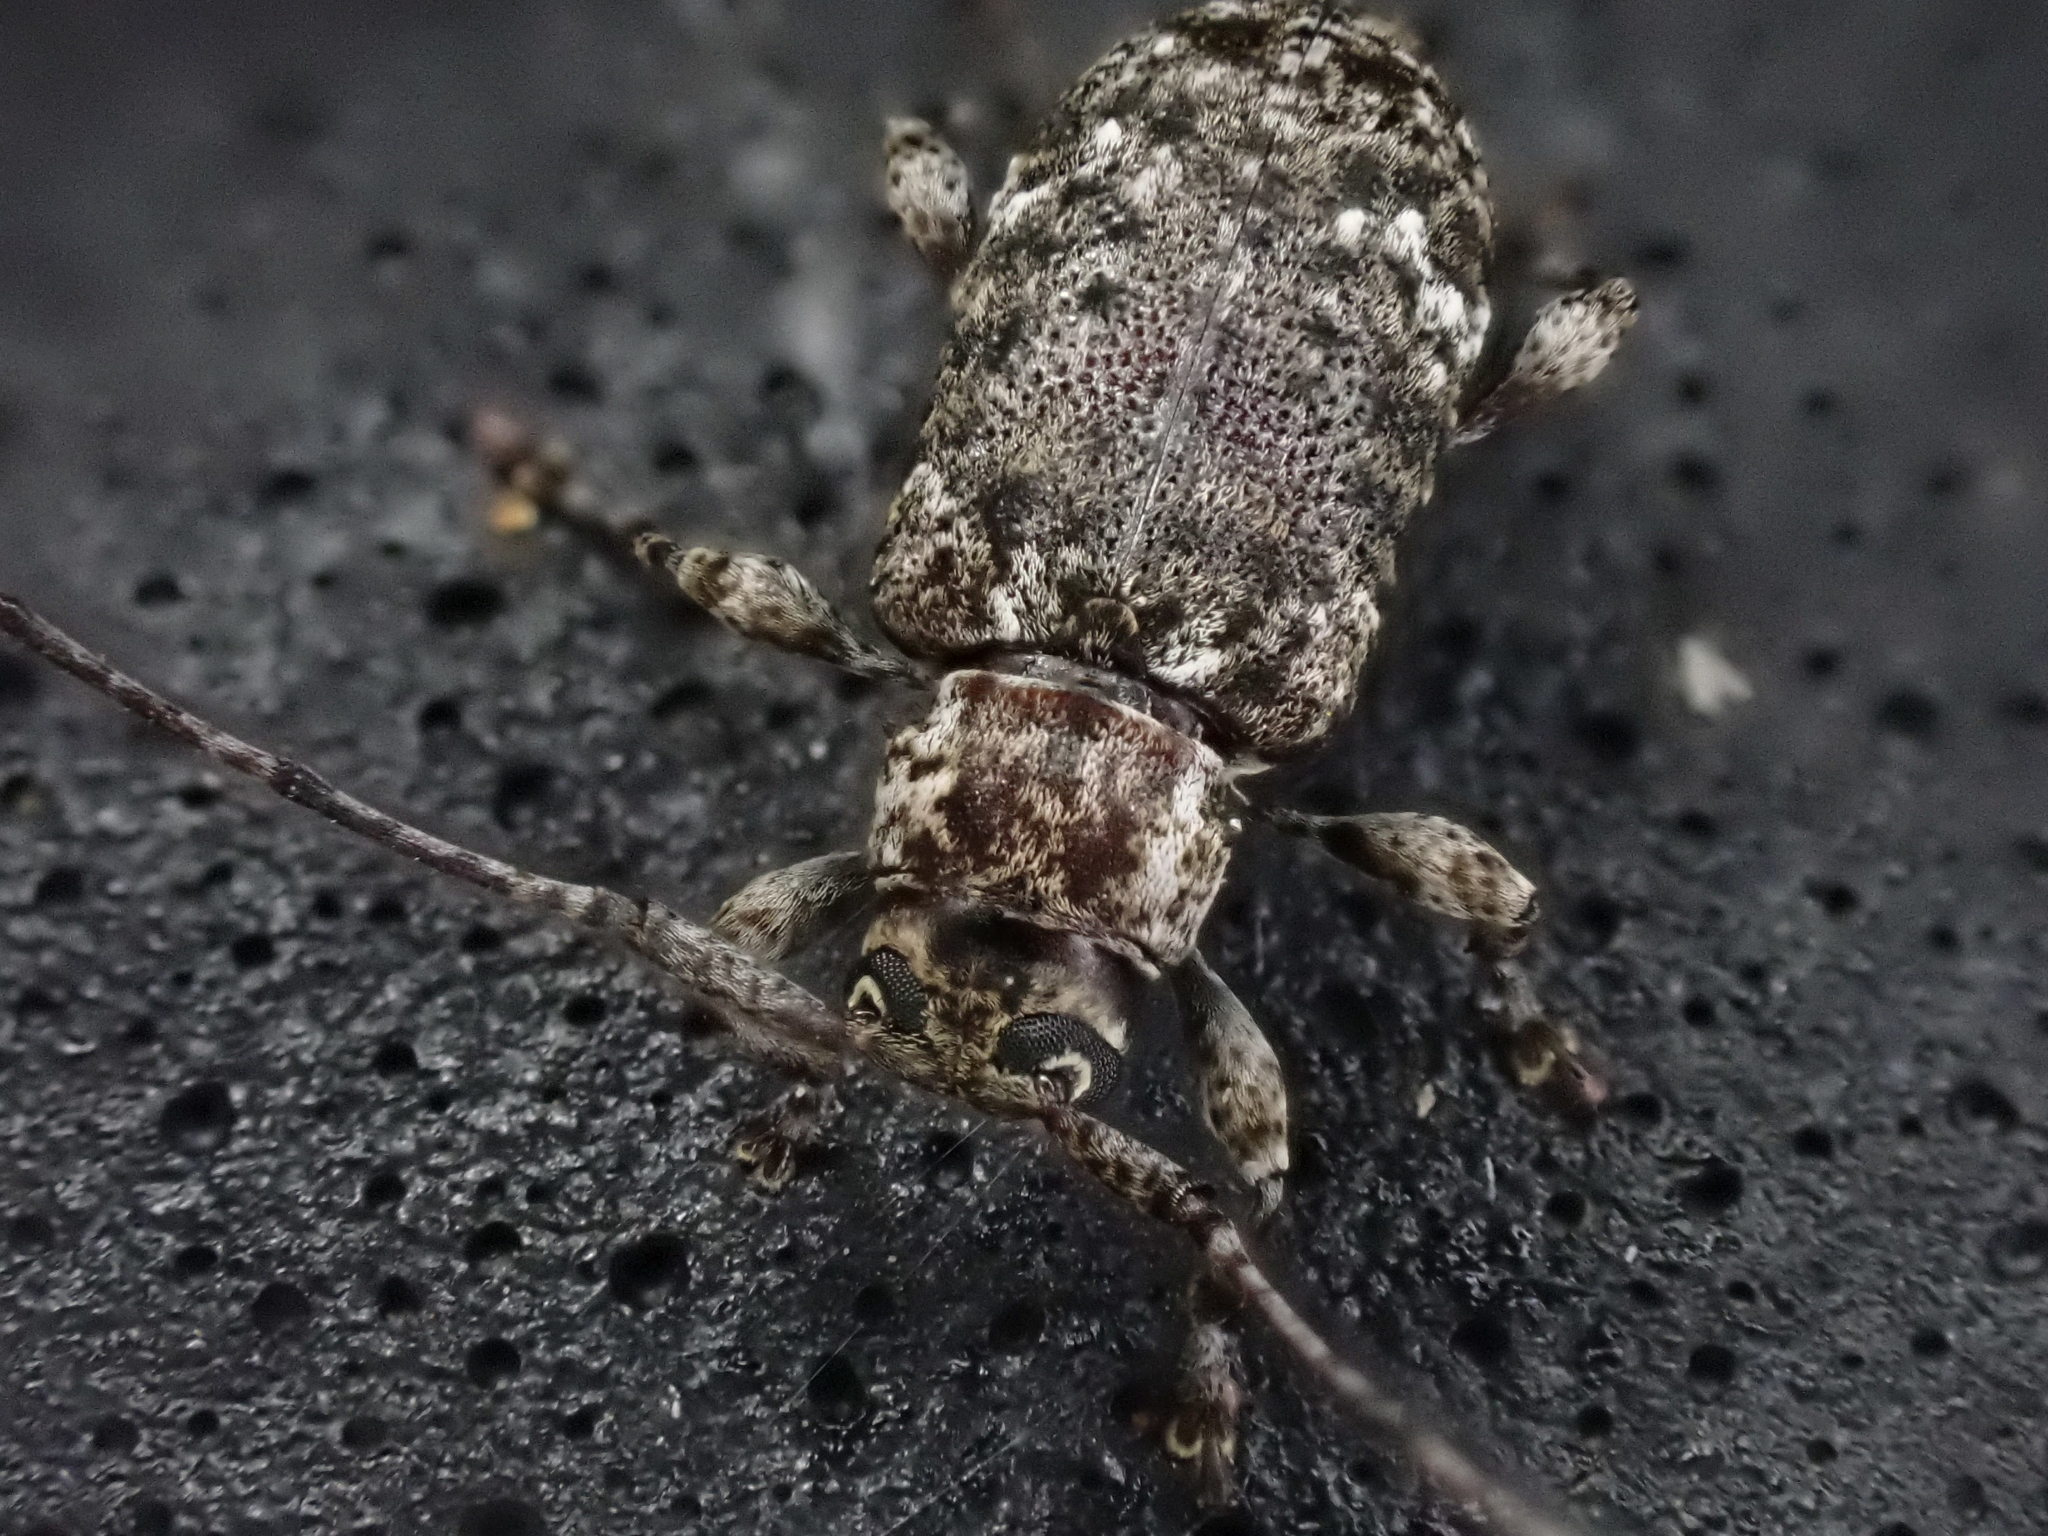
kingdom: Animalia
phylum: Arthropoda
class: Insecta
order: Coleoptera
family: Cerambycidae
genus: Astylopsis
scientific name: Astylopsis sexguttata
